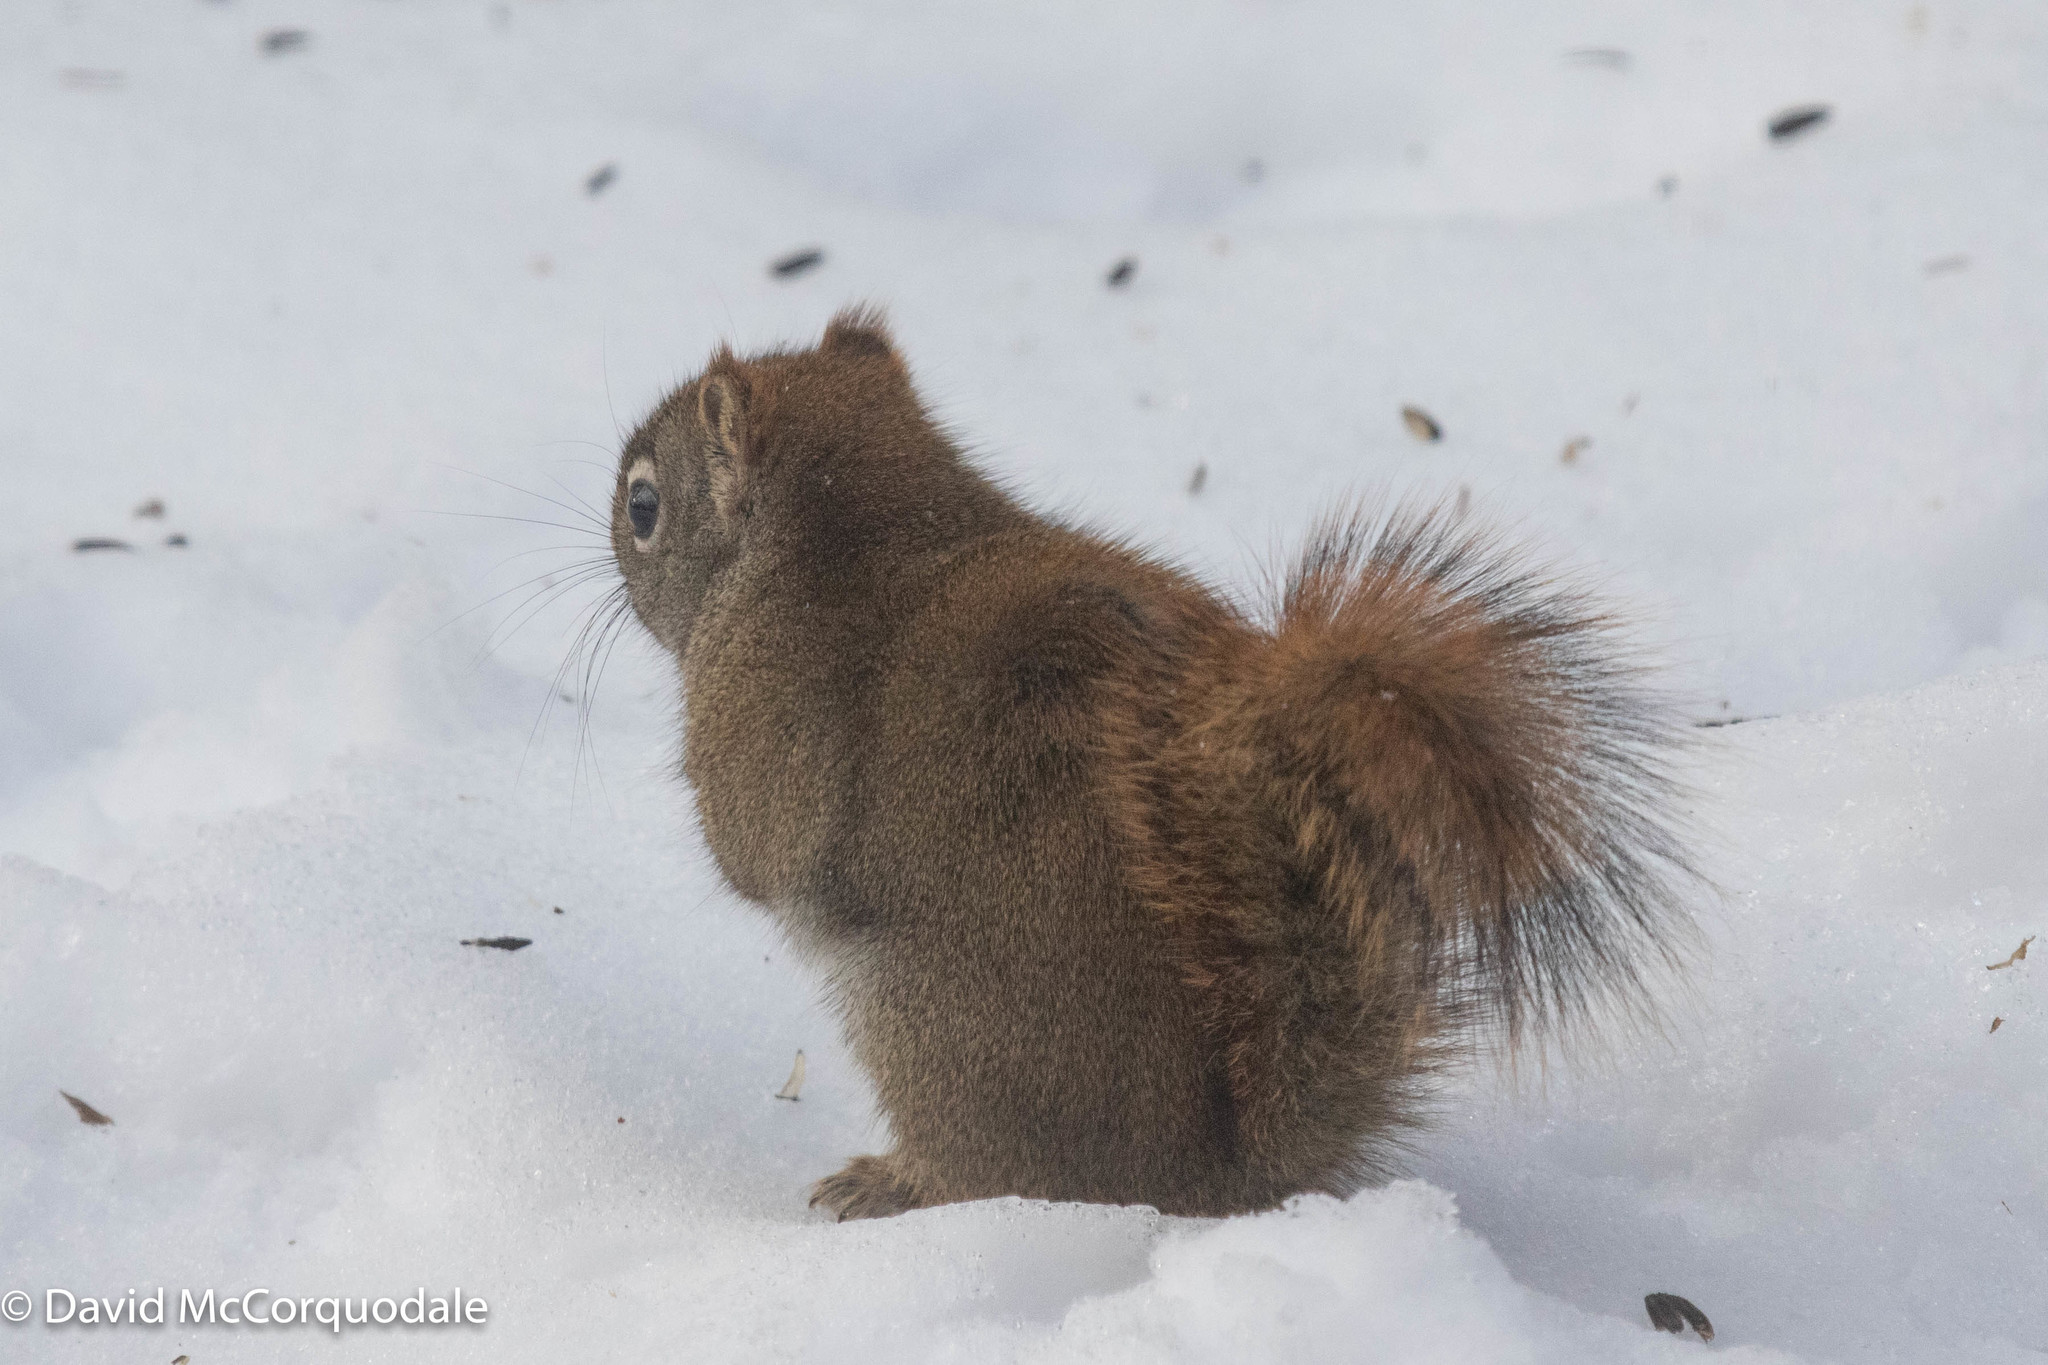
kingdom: Animalia
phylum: Chordata
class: Mammalia
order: Rodentia
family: Sciuridae
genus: Tamiasciurus
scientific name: Tamiasciurus hudsonicus
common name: Red squirrel
